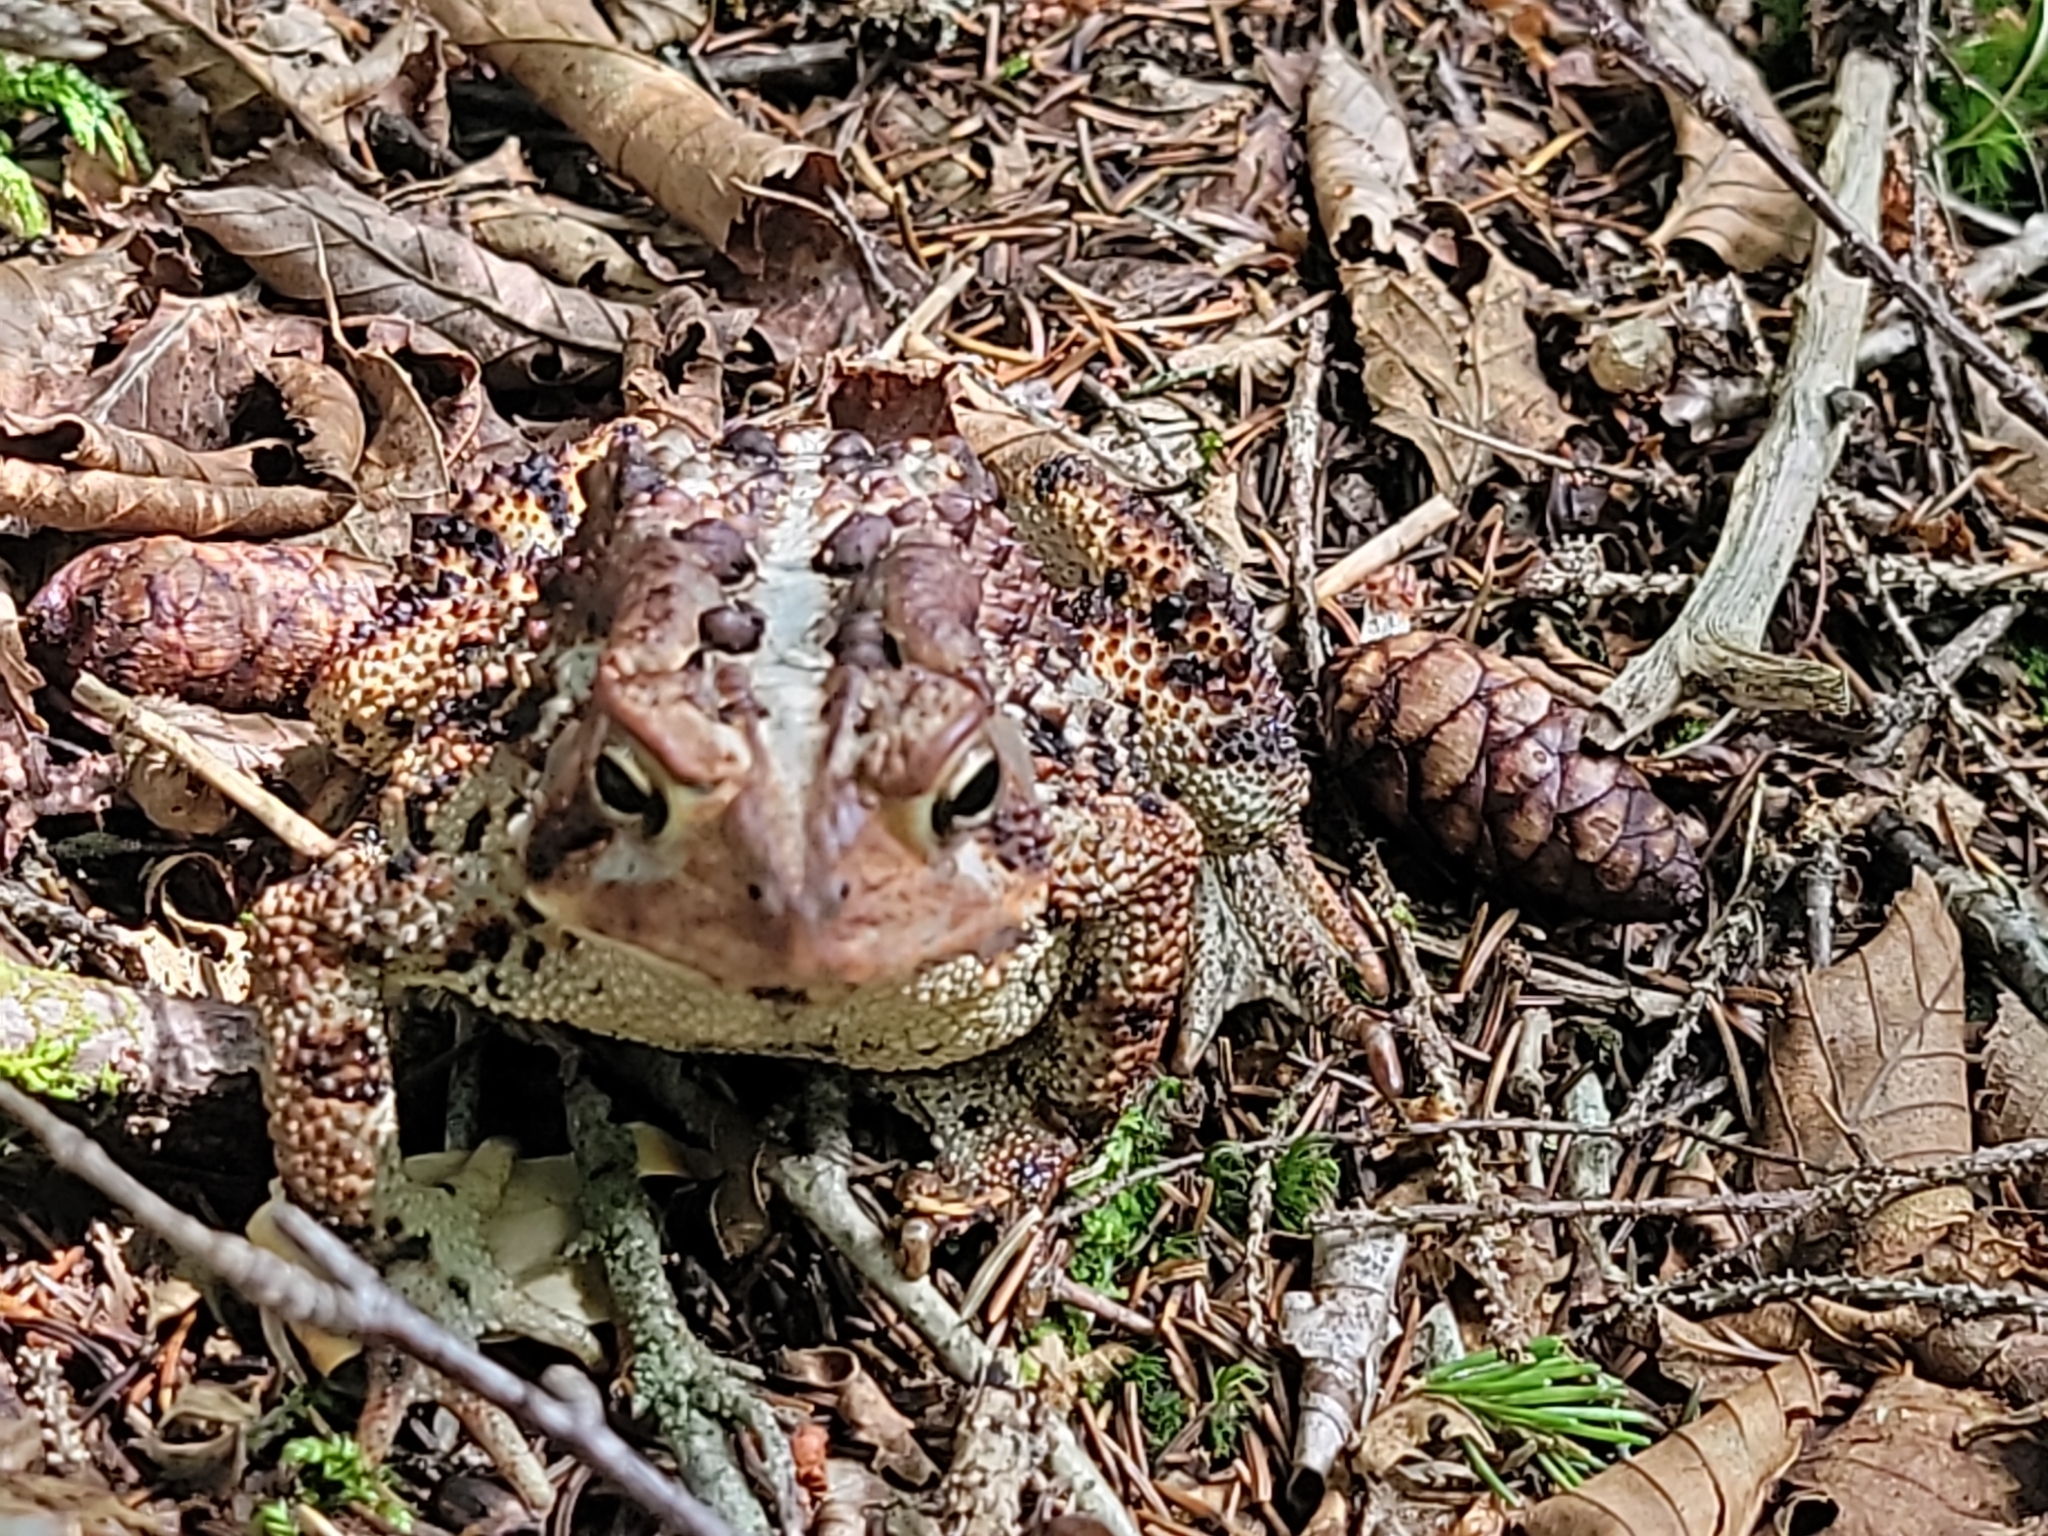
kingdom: Animalia
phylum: Chordata
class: Amphibia
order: Anura
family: Bufonidae
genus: Anaxyrus
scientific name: Anaxyrus americanus
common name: American toad
